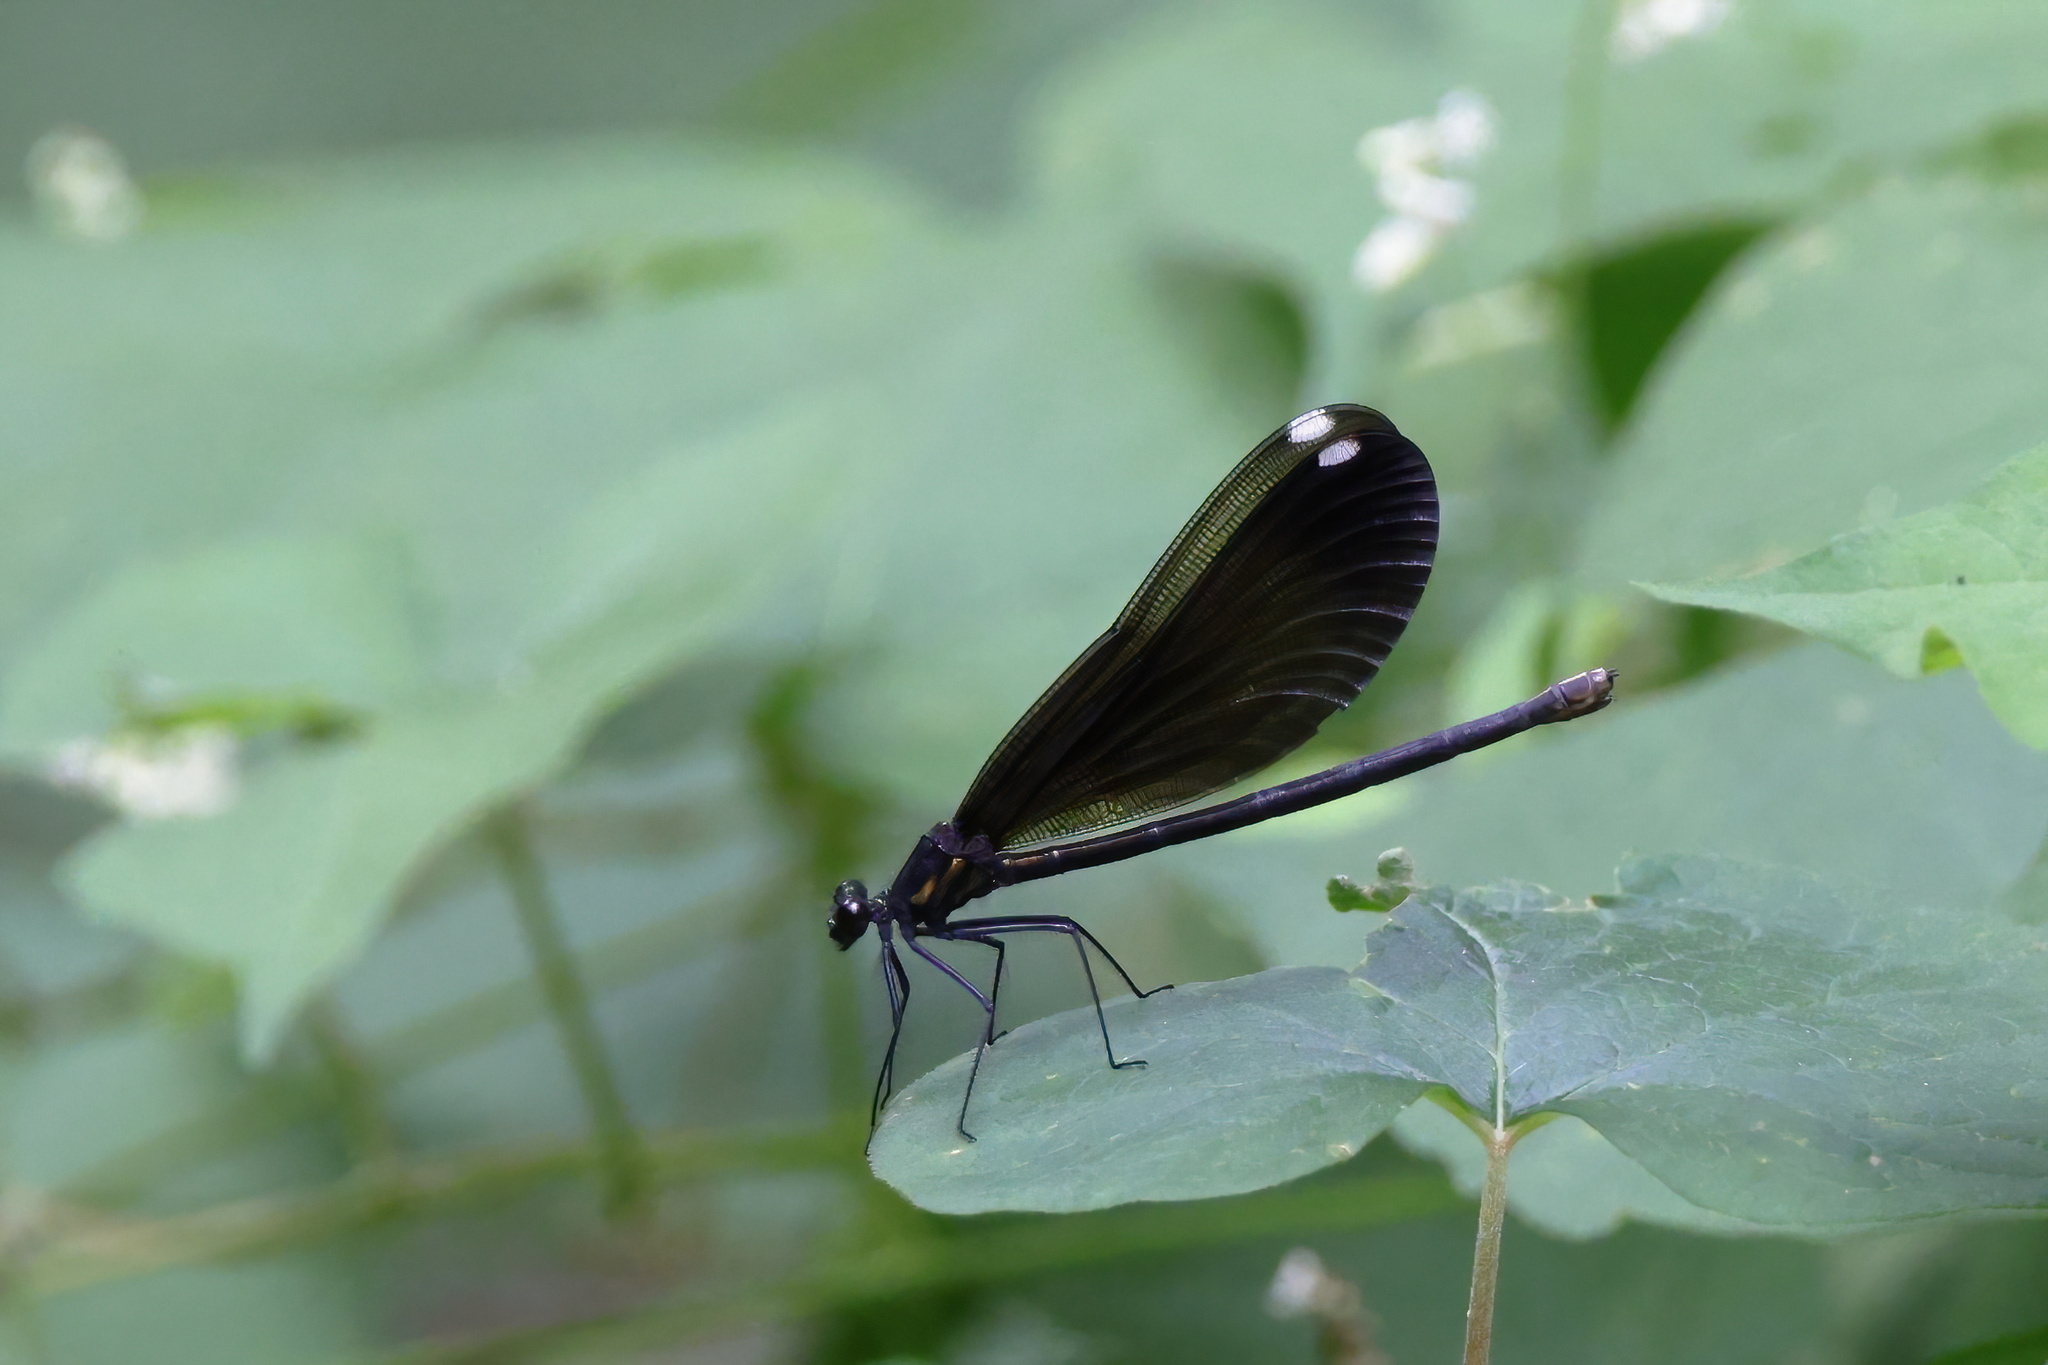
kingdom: Animalia
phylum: Arthropoda
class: Insecta
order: Odonata
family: Calopterygidae
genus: Calopteryx
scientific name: Calopteryx maculata
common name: Ebony jewelwing
